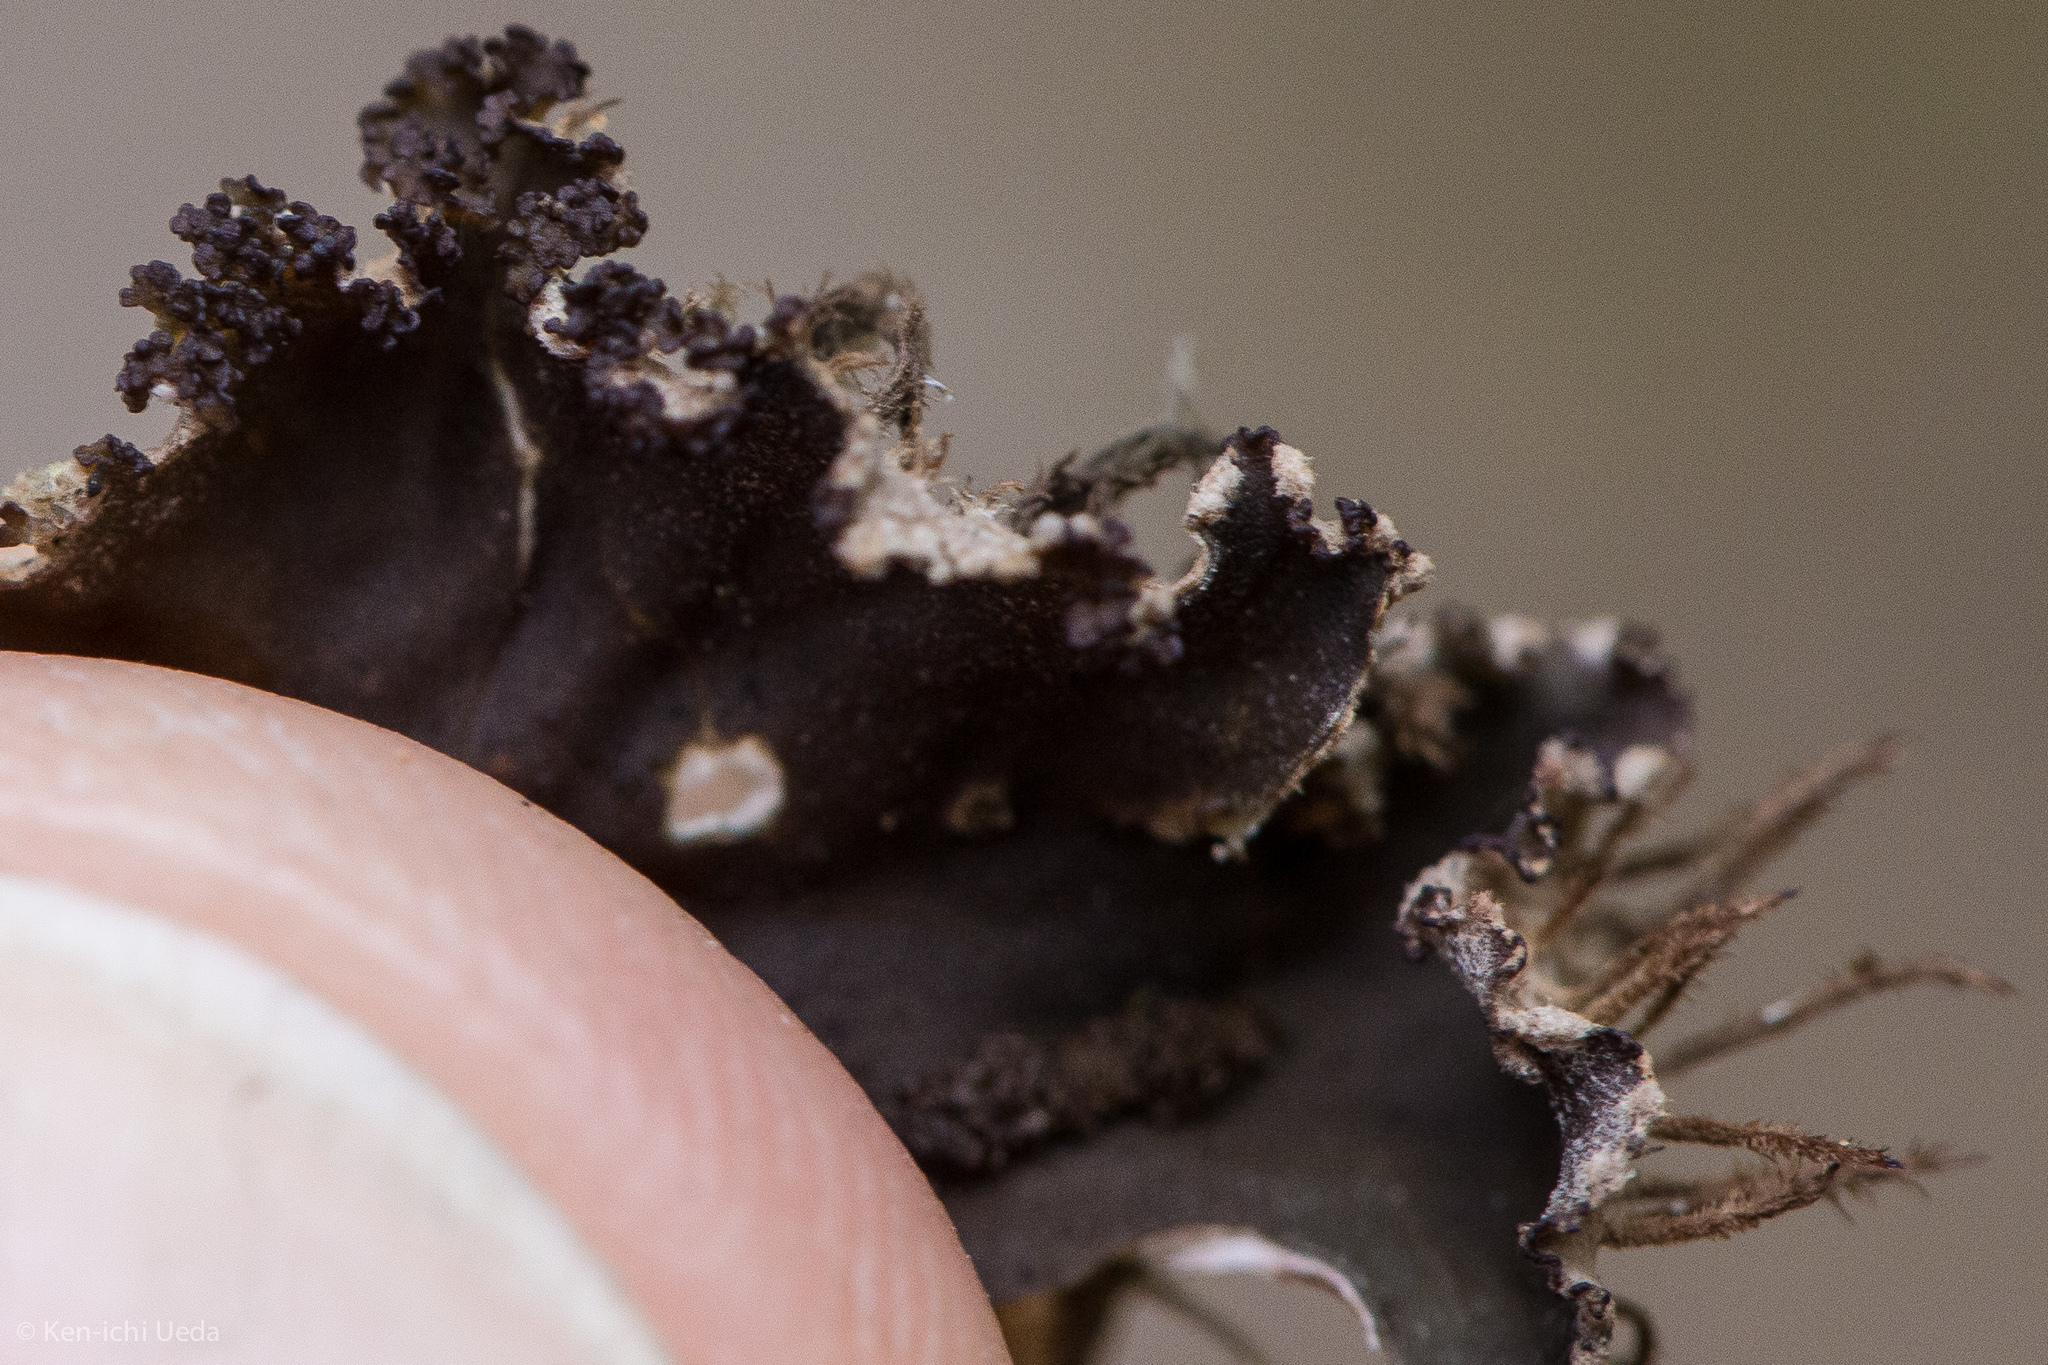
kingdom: Fungi
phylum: Ascomycota
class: Lecanoromycetes
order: Peltigerales
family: Peltigeraceae
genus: Peltigera
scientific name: Peltigera praetextata
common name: Scaly dog-lichen
